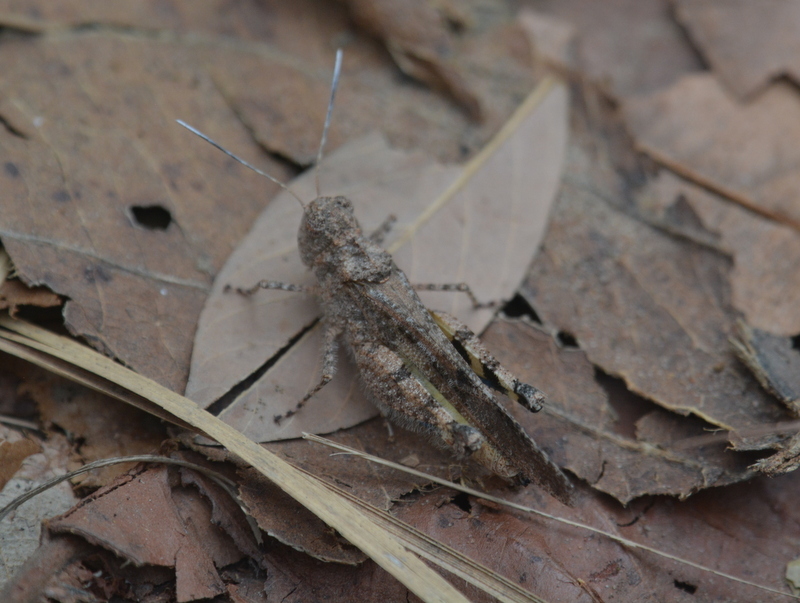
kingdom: Animalia
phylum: Arthropoda
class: Insecta
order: Orthoptera
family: Acrididae
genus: Trilophidia
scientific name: Trilophidia annulata
